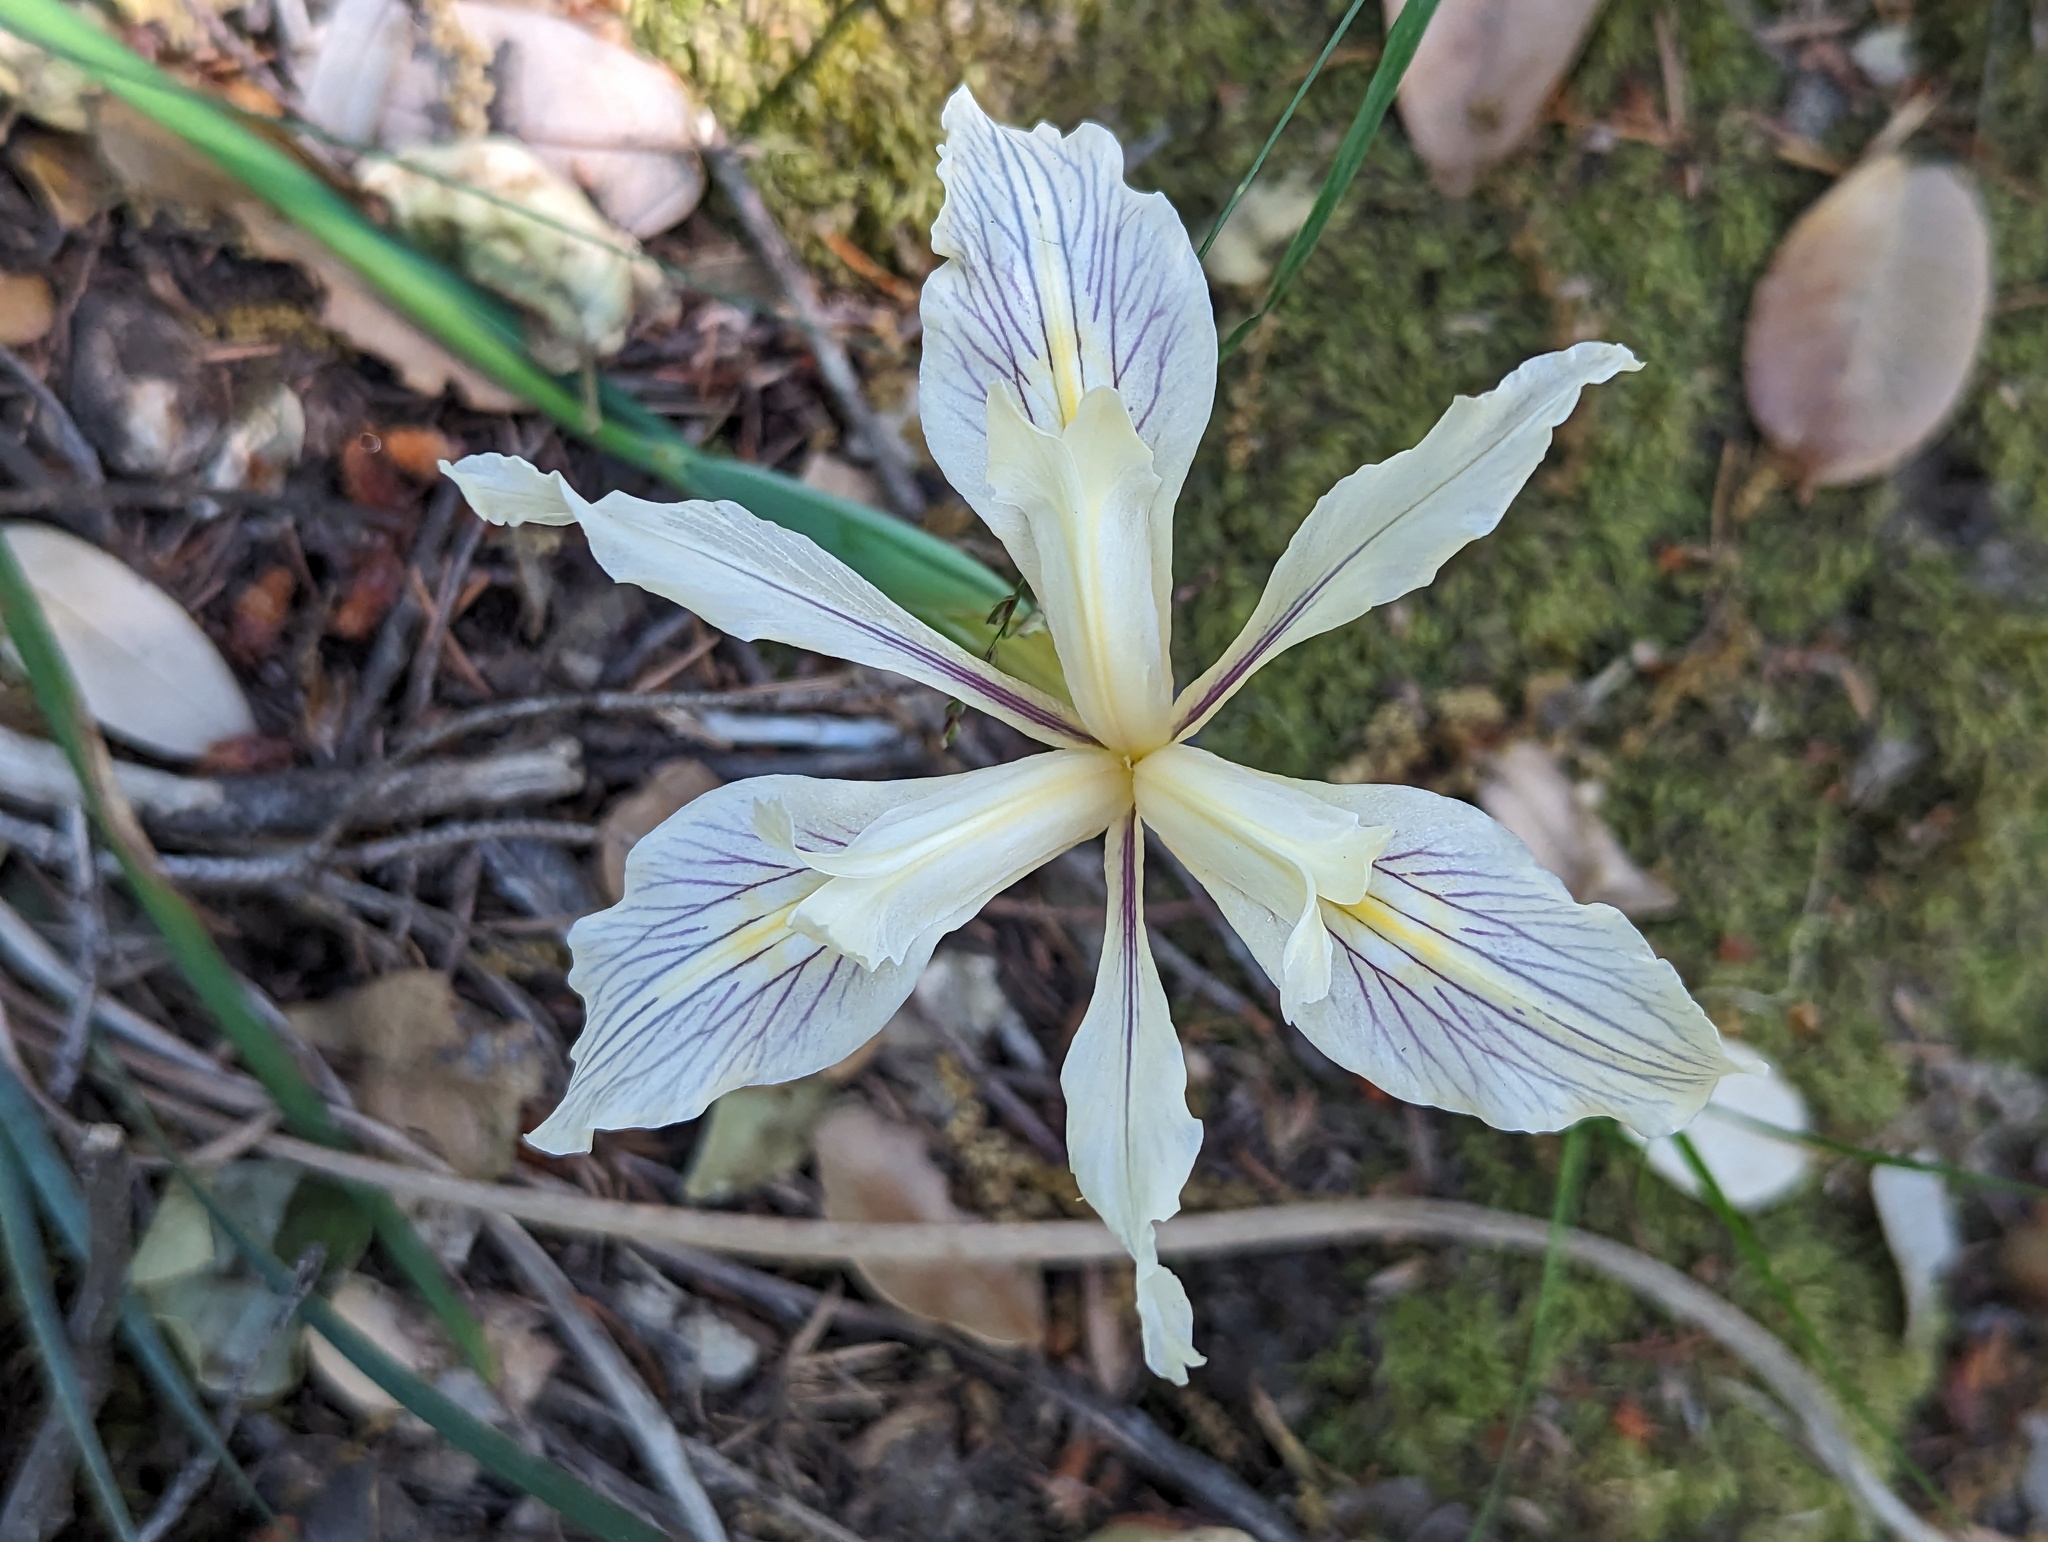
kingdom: Plantae
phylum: Tracheophyta
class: Liliopsida
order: Asparagales
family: Iridaceae
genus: Iris
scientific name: Iris fernaldii
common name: Fernald's iris
